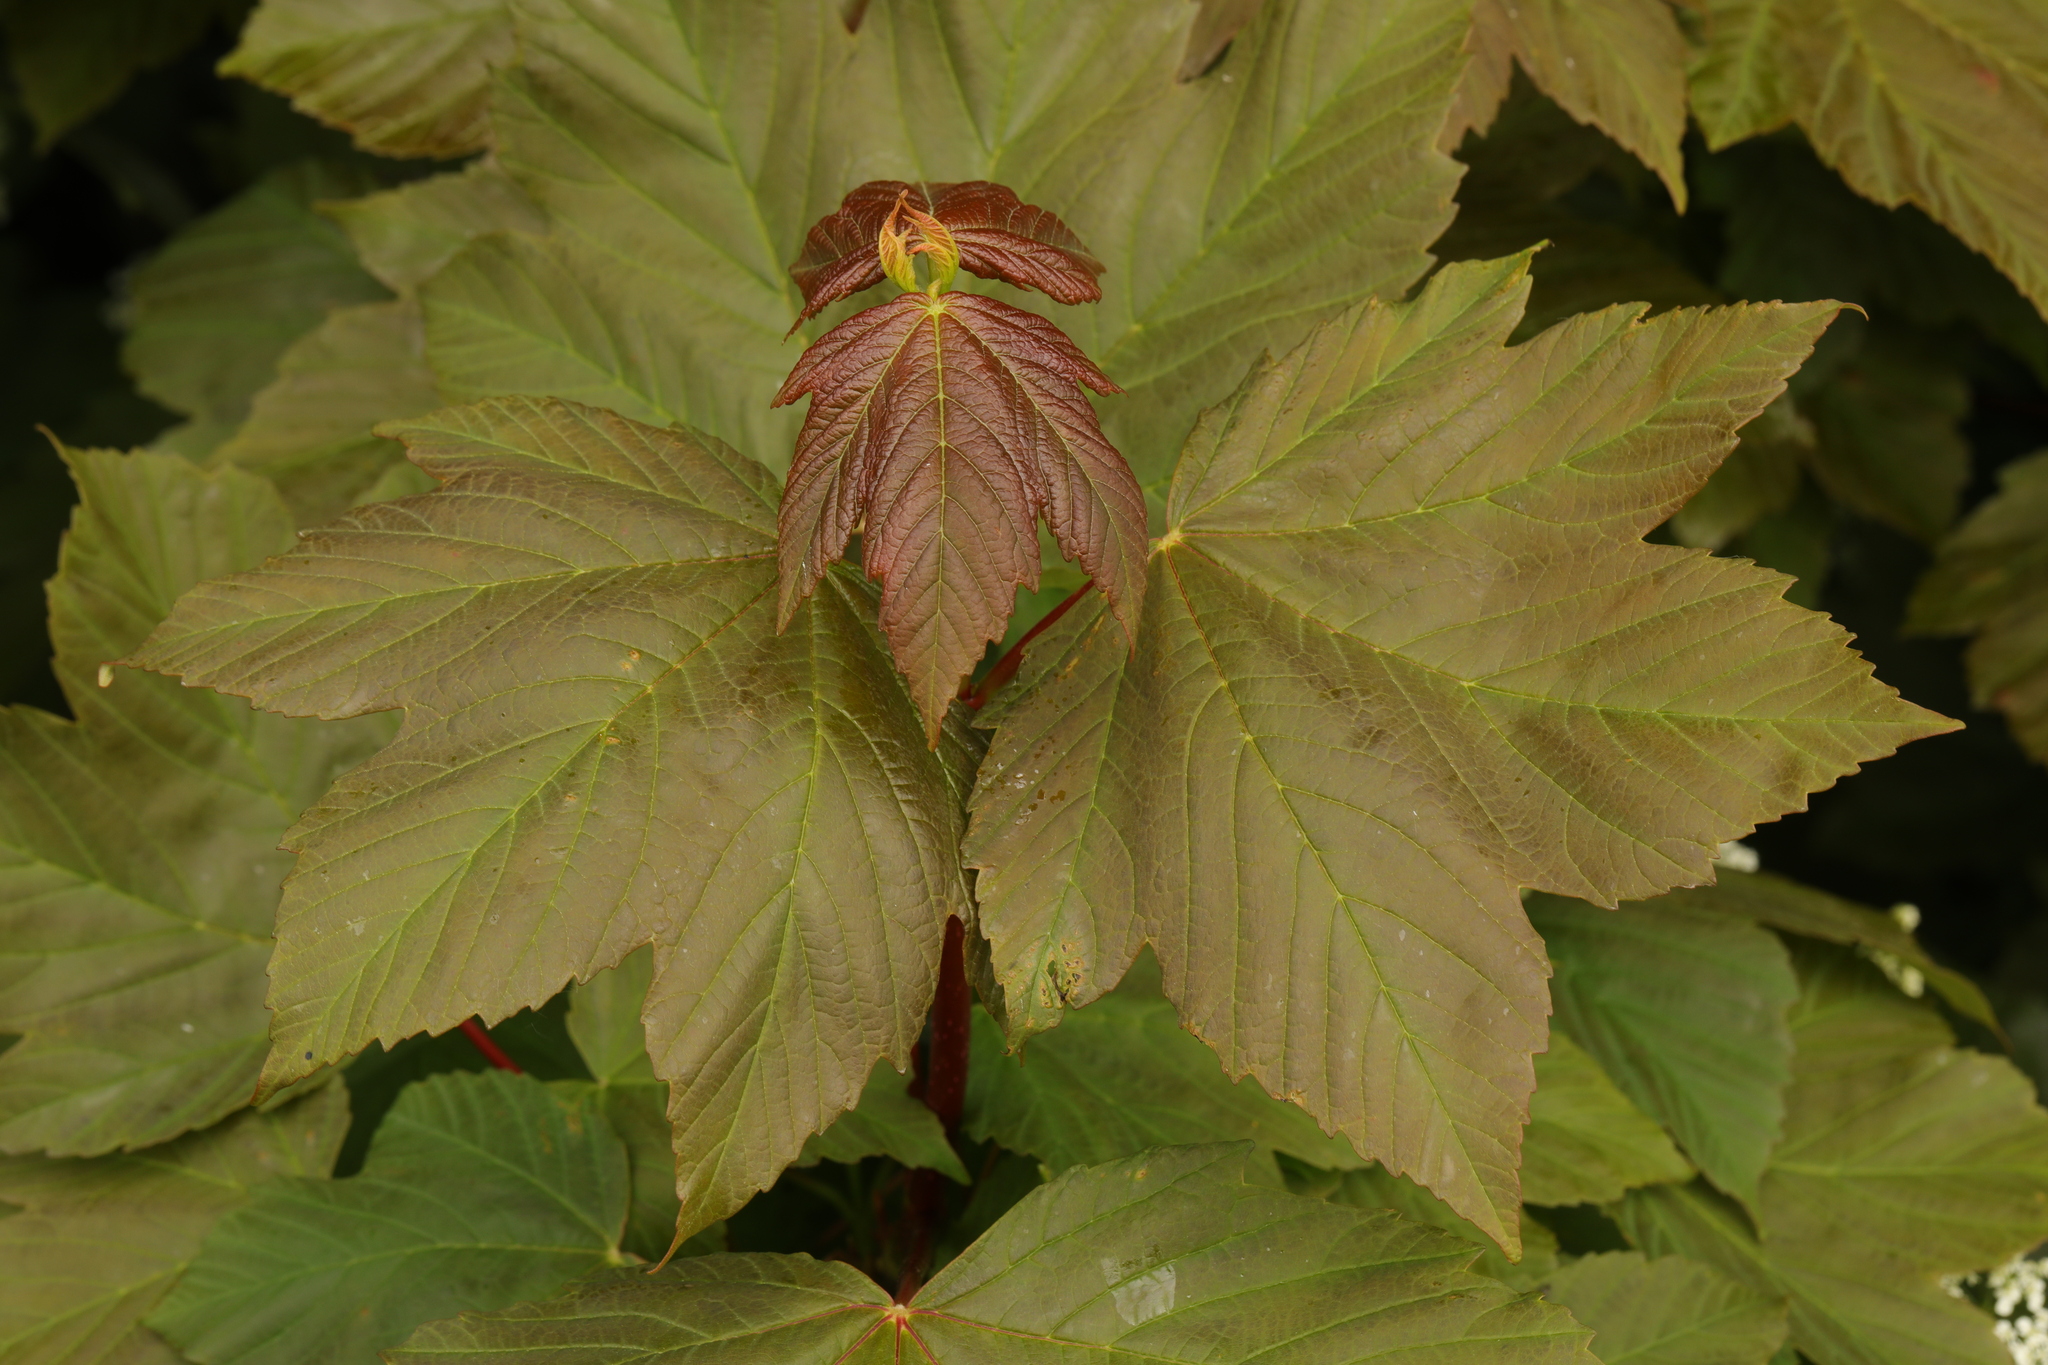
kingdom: Plantae
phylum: Tracheophyta
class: Magnoliopsida
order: Sapindales
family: Sapindaceae
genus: Acer
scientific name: Acer pseudoplatanus
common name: Sycamore
